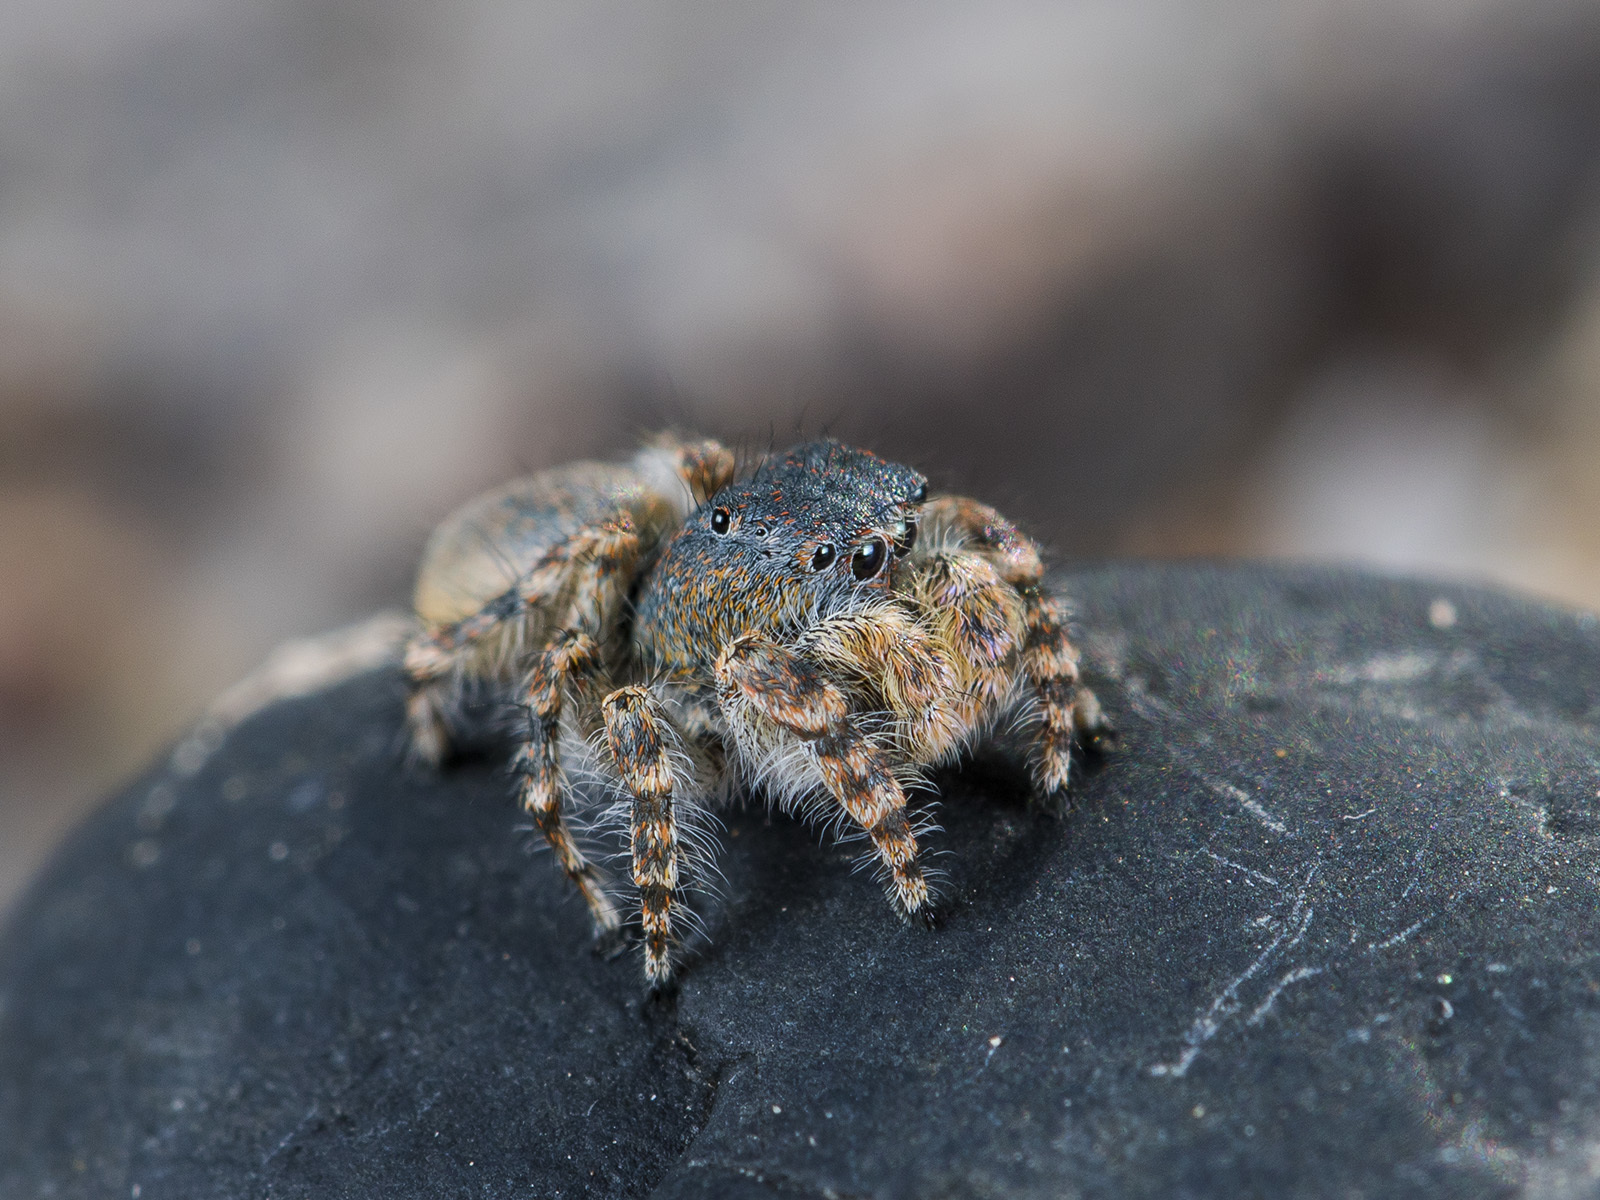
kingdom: Animalia
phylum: Arthropoda
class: Arachnida
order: Araneae
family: Salticidae
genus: Yllenus
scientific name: Yllenus zyuzini
